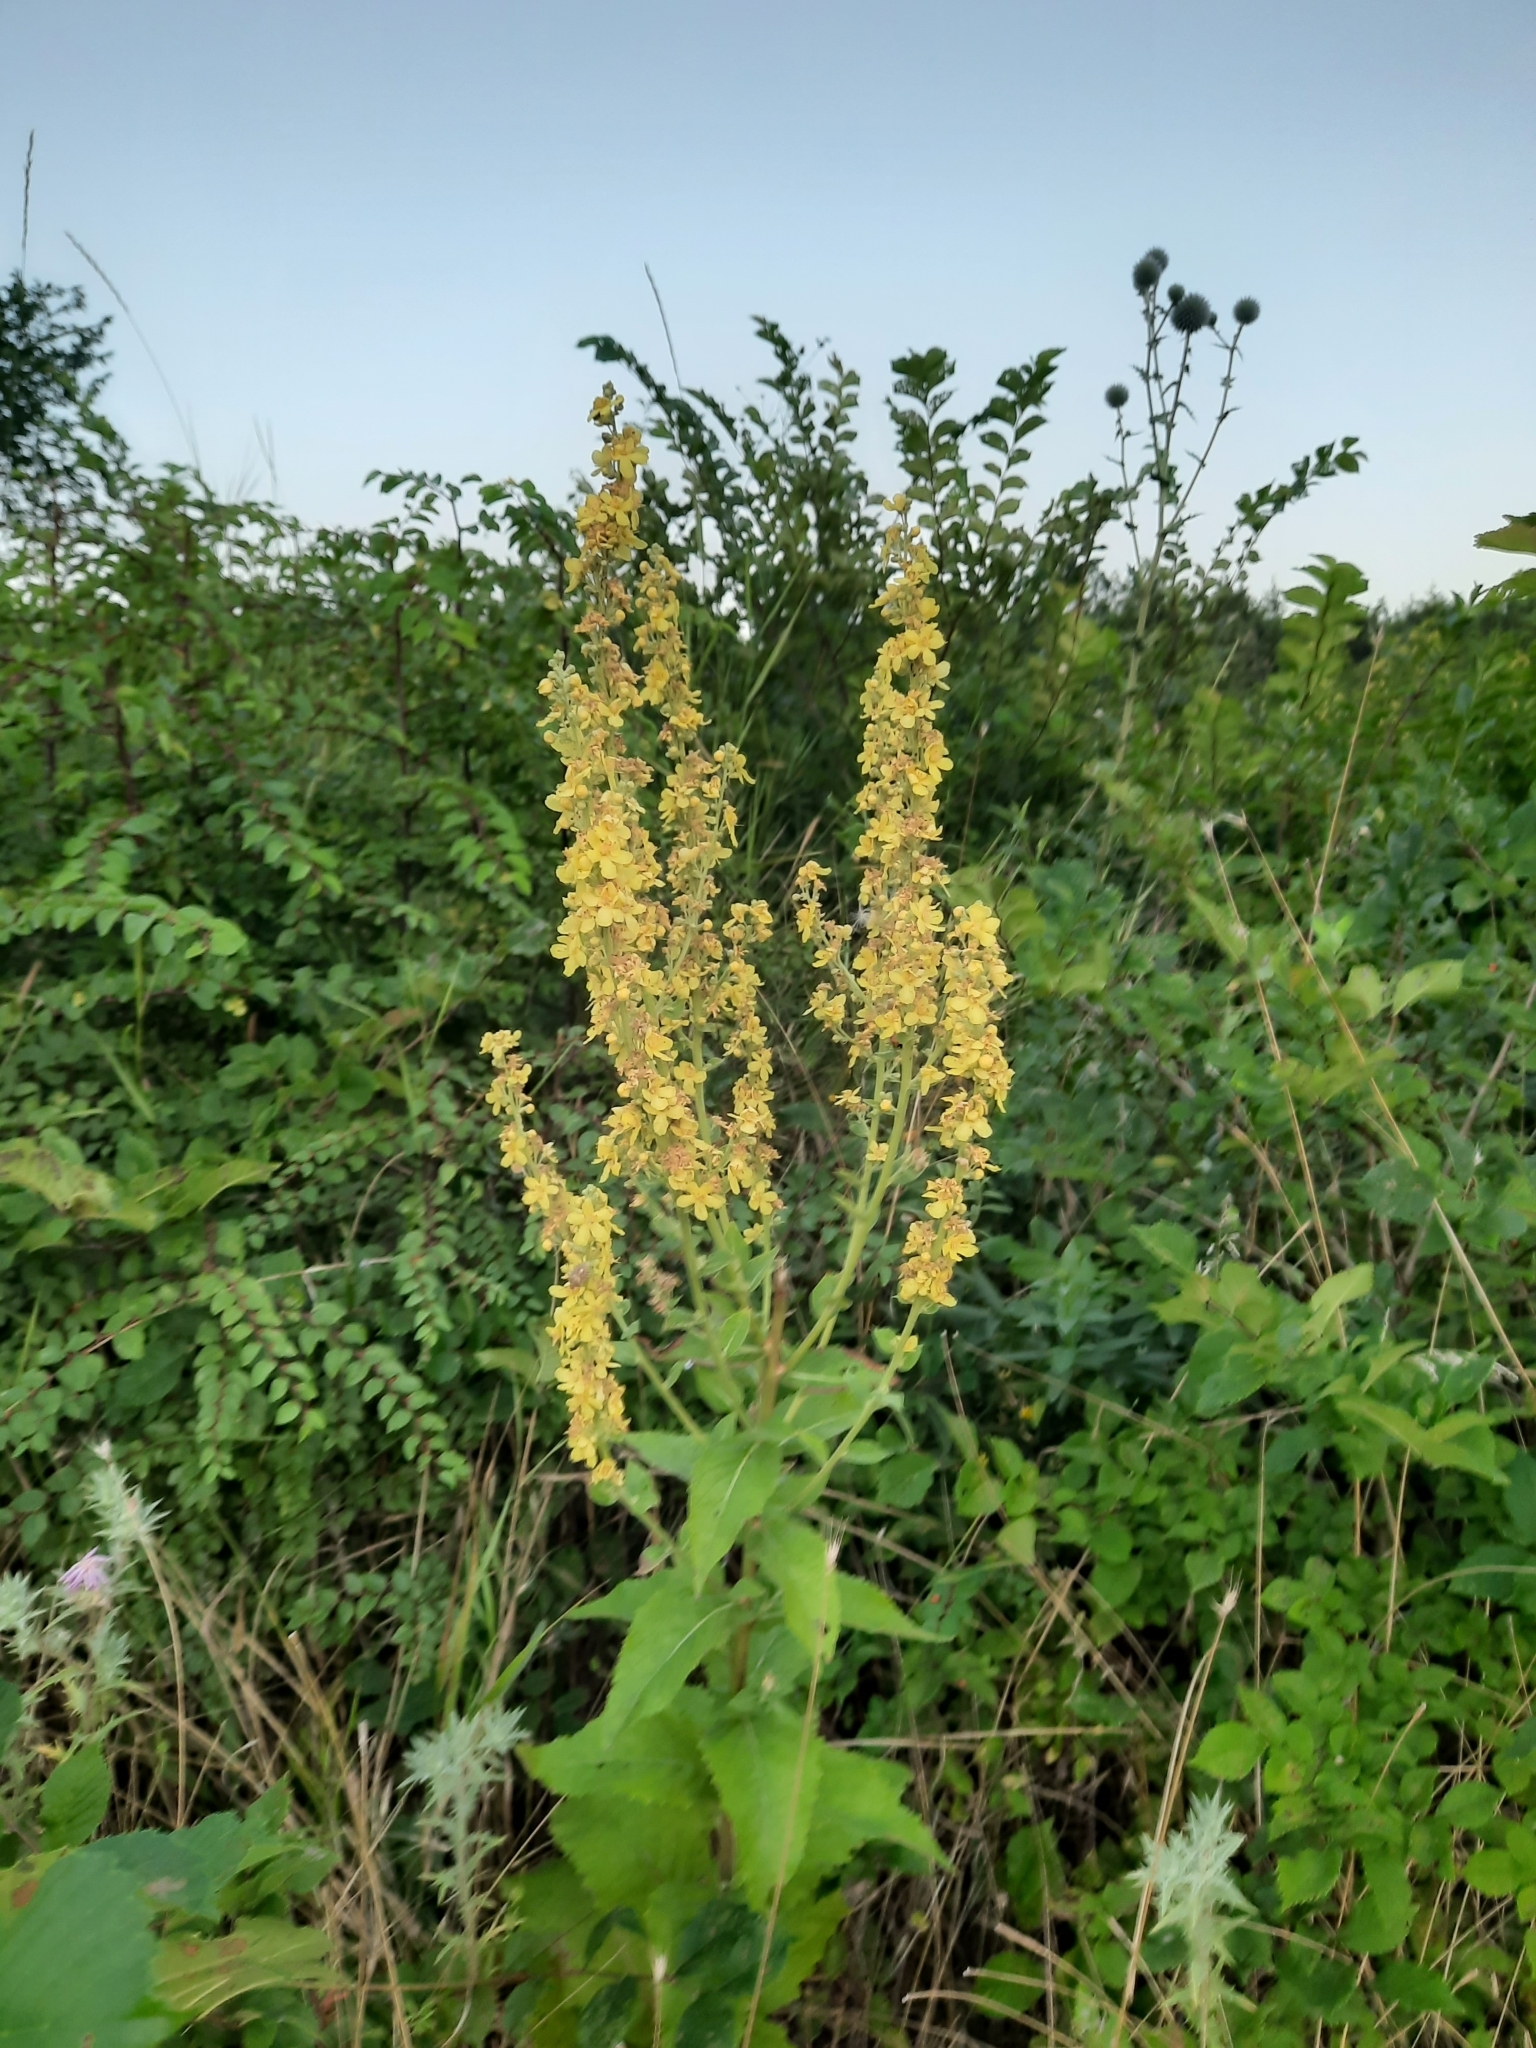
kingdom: Plantae
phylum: Tracheophyta
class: Magnoliopsida
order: Lamiales
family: Scrophulariaceae
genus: Verbascum
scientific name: Verbascum lychnitis
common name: White mullein
